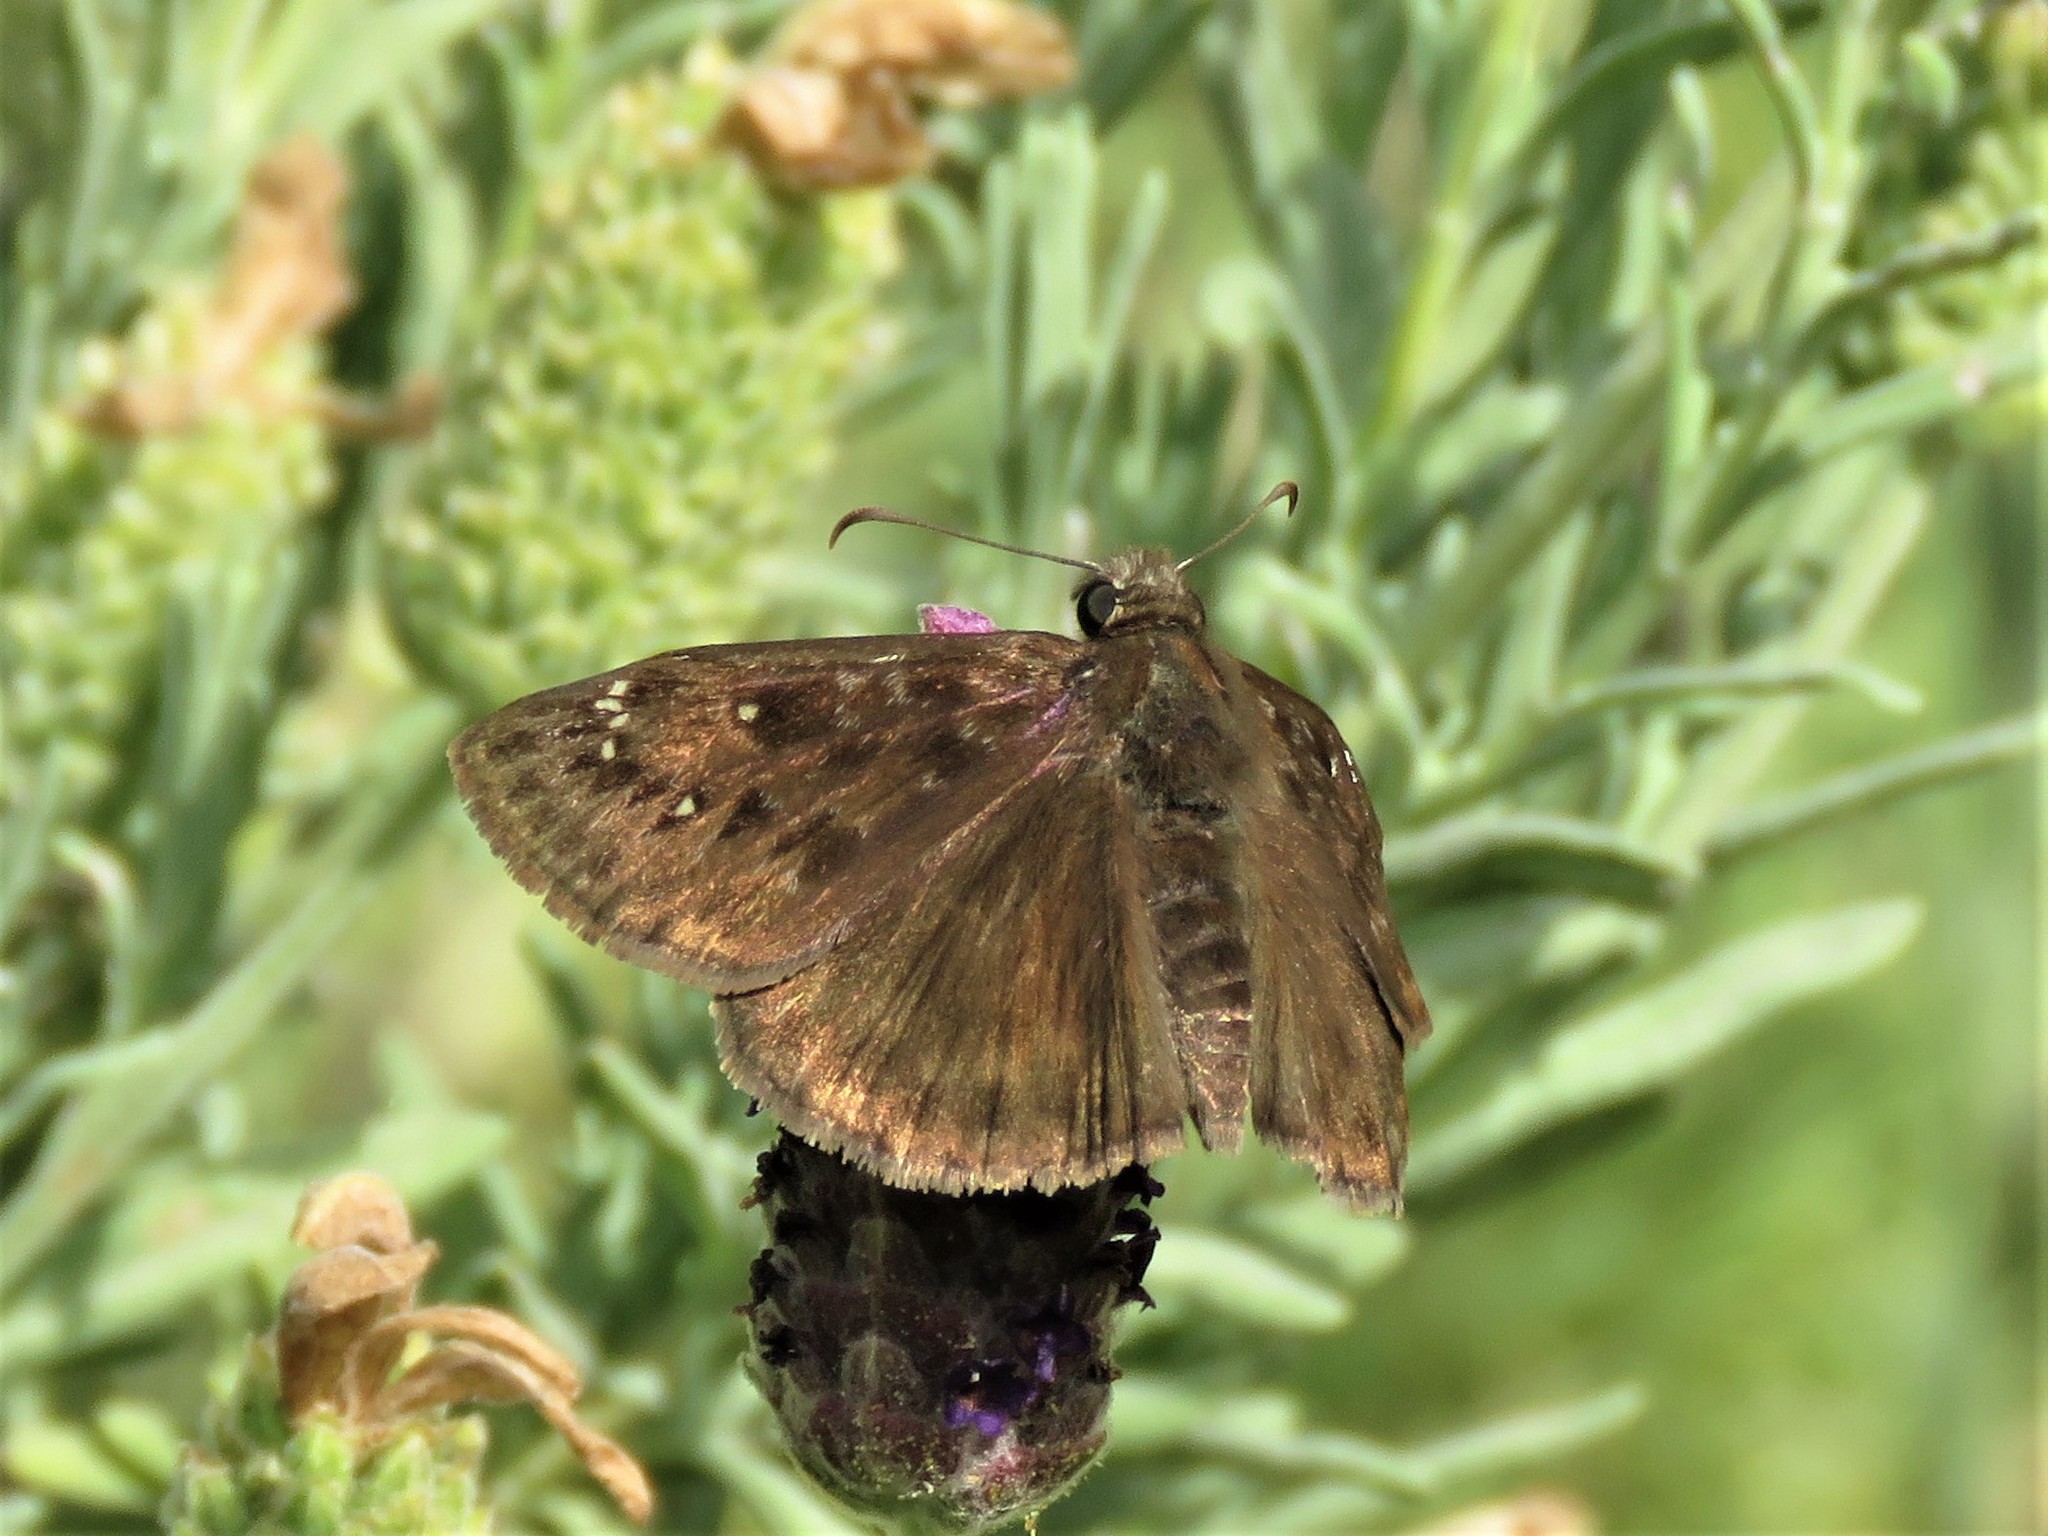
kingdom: Animalia
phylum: Arthropoda
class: Insecta
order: Lepidoptera
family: Hesperiidae
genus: Erynnis
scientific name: Erynnis horatius
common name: Horace's duskywing
